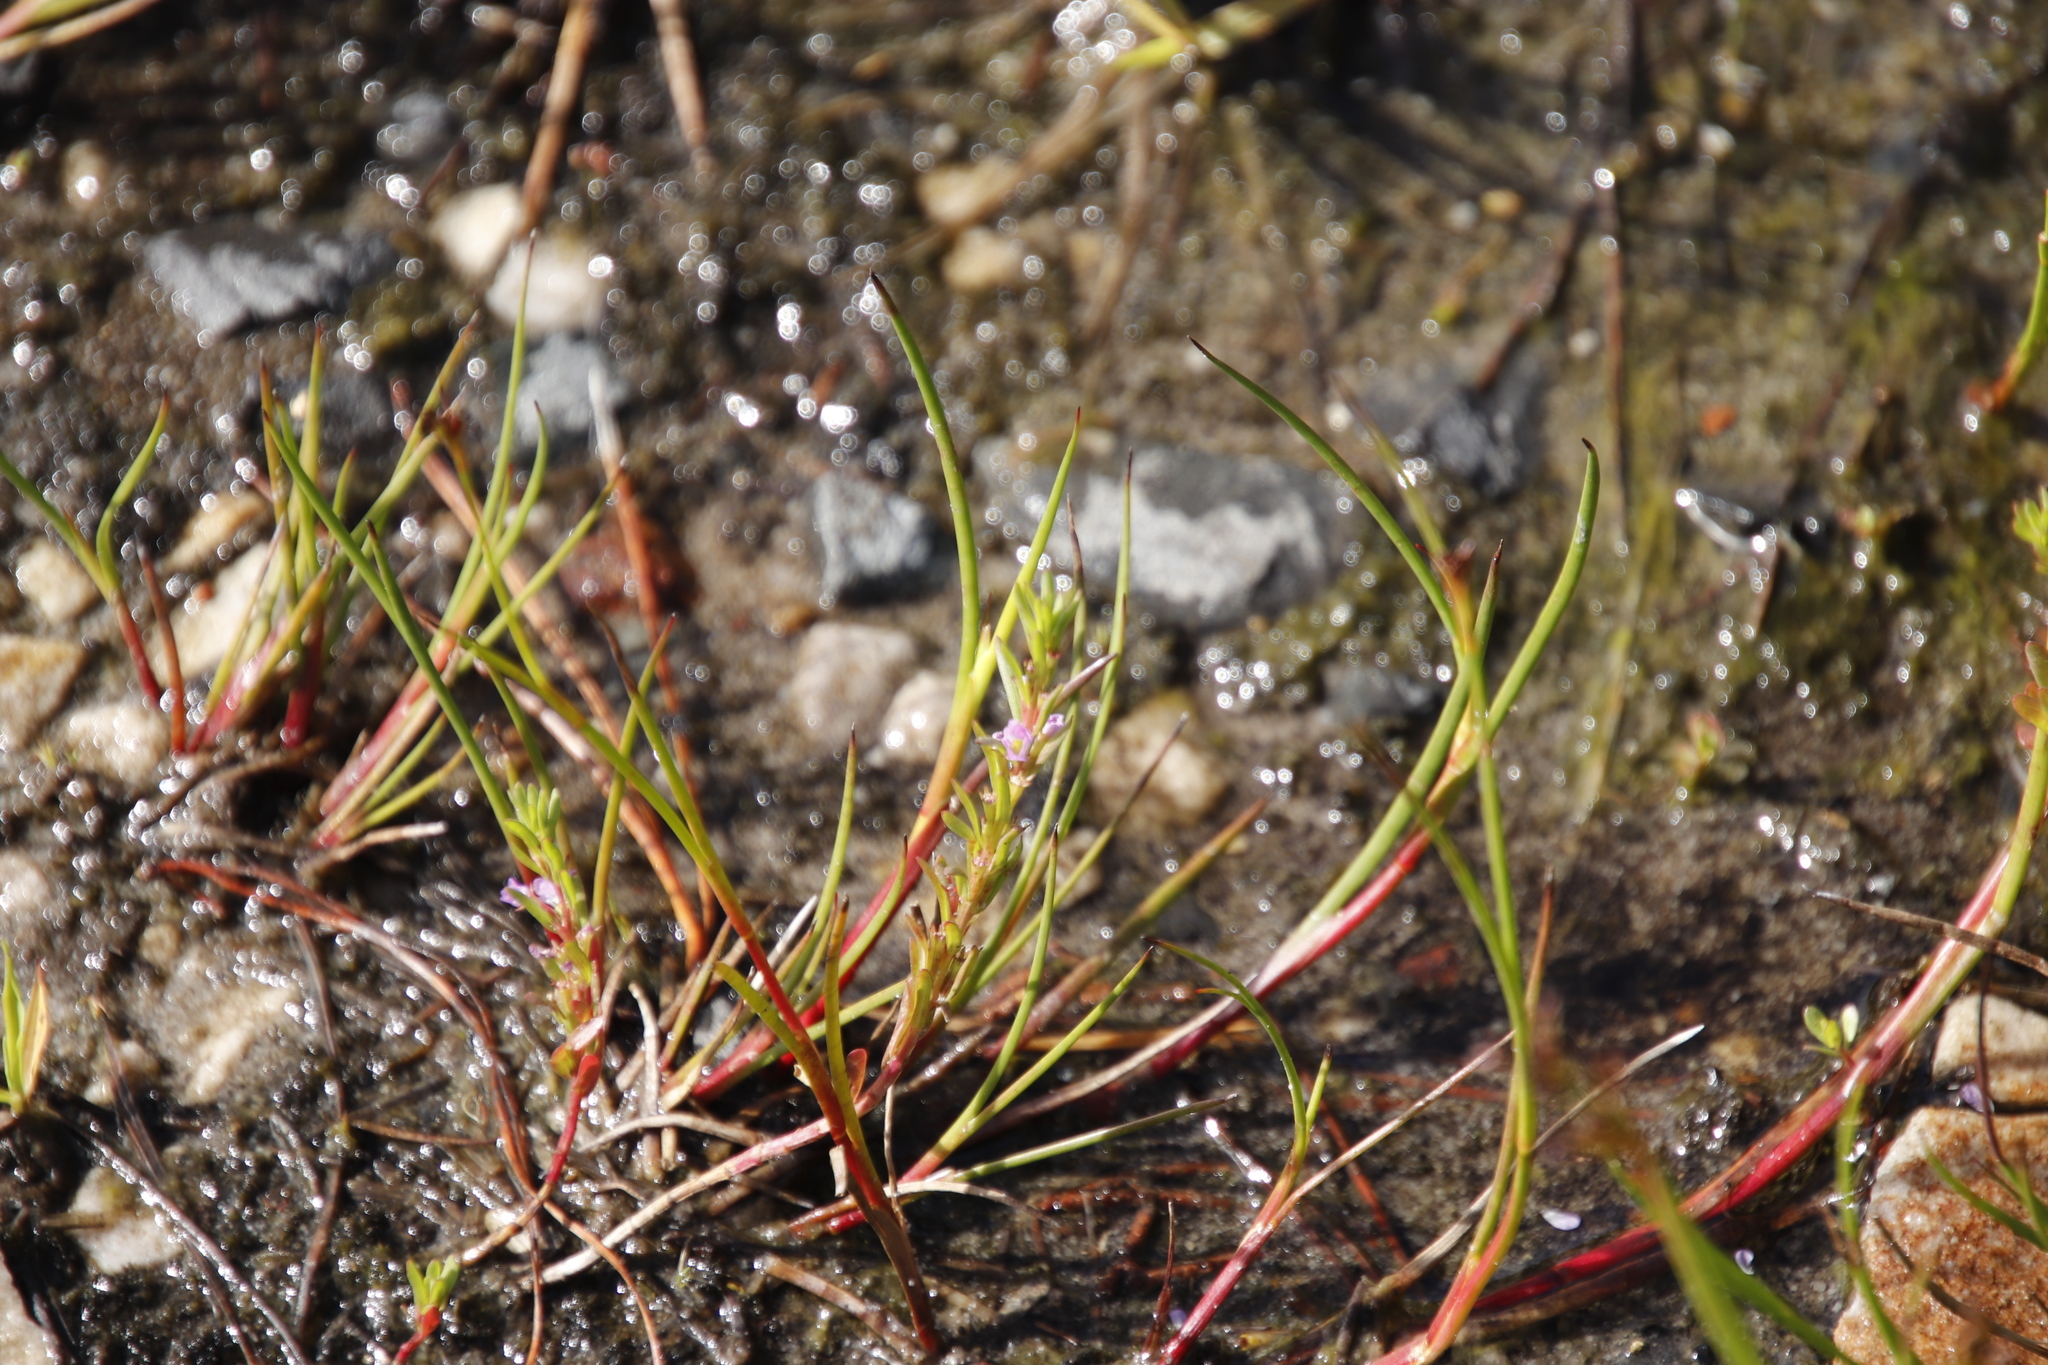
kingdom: Plantae
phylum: Tracheophyta
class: Magnoliopsida
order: Myrtales
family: Lythraceae
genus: Lythrum
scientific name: Lythrum hyssopifolia
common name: Grass-poly
